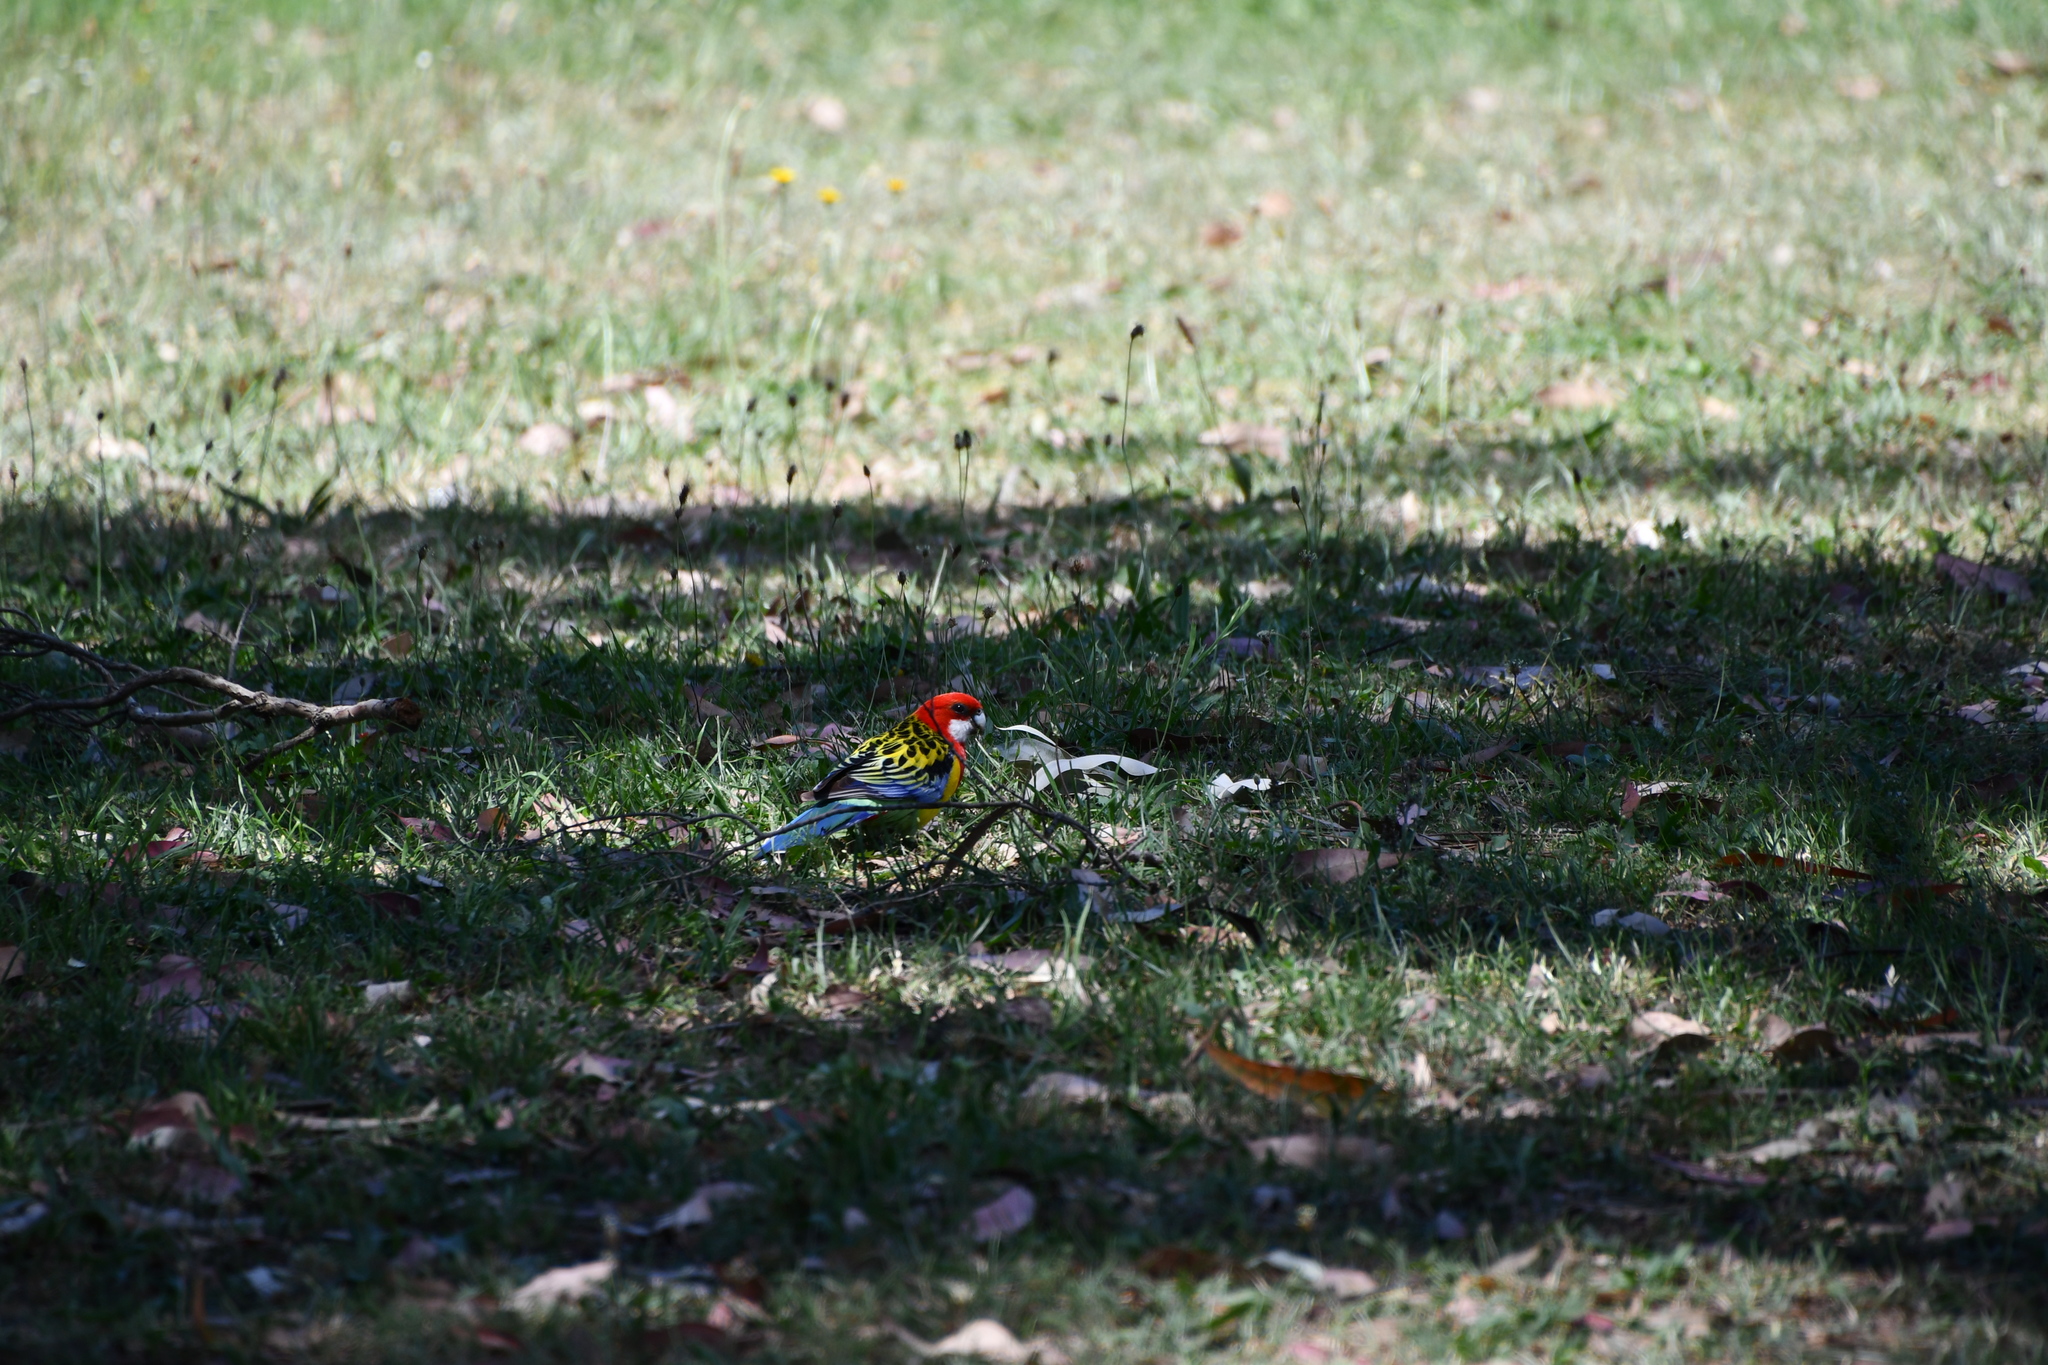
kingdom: Animalia
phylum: Chordata
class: Aves
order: Psittaciformes
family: Psittacidae
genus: Platycercus
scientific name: Platycercus eximius
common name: Eastern rosella
